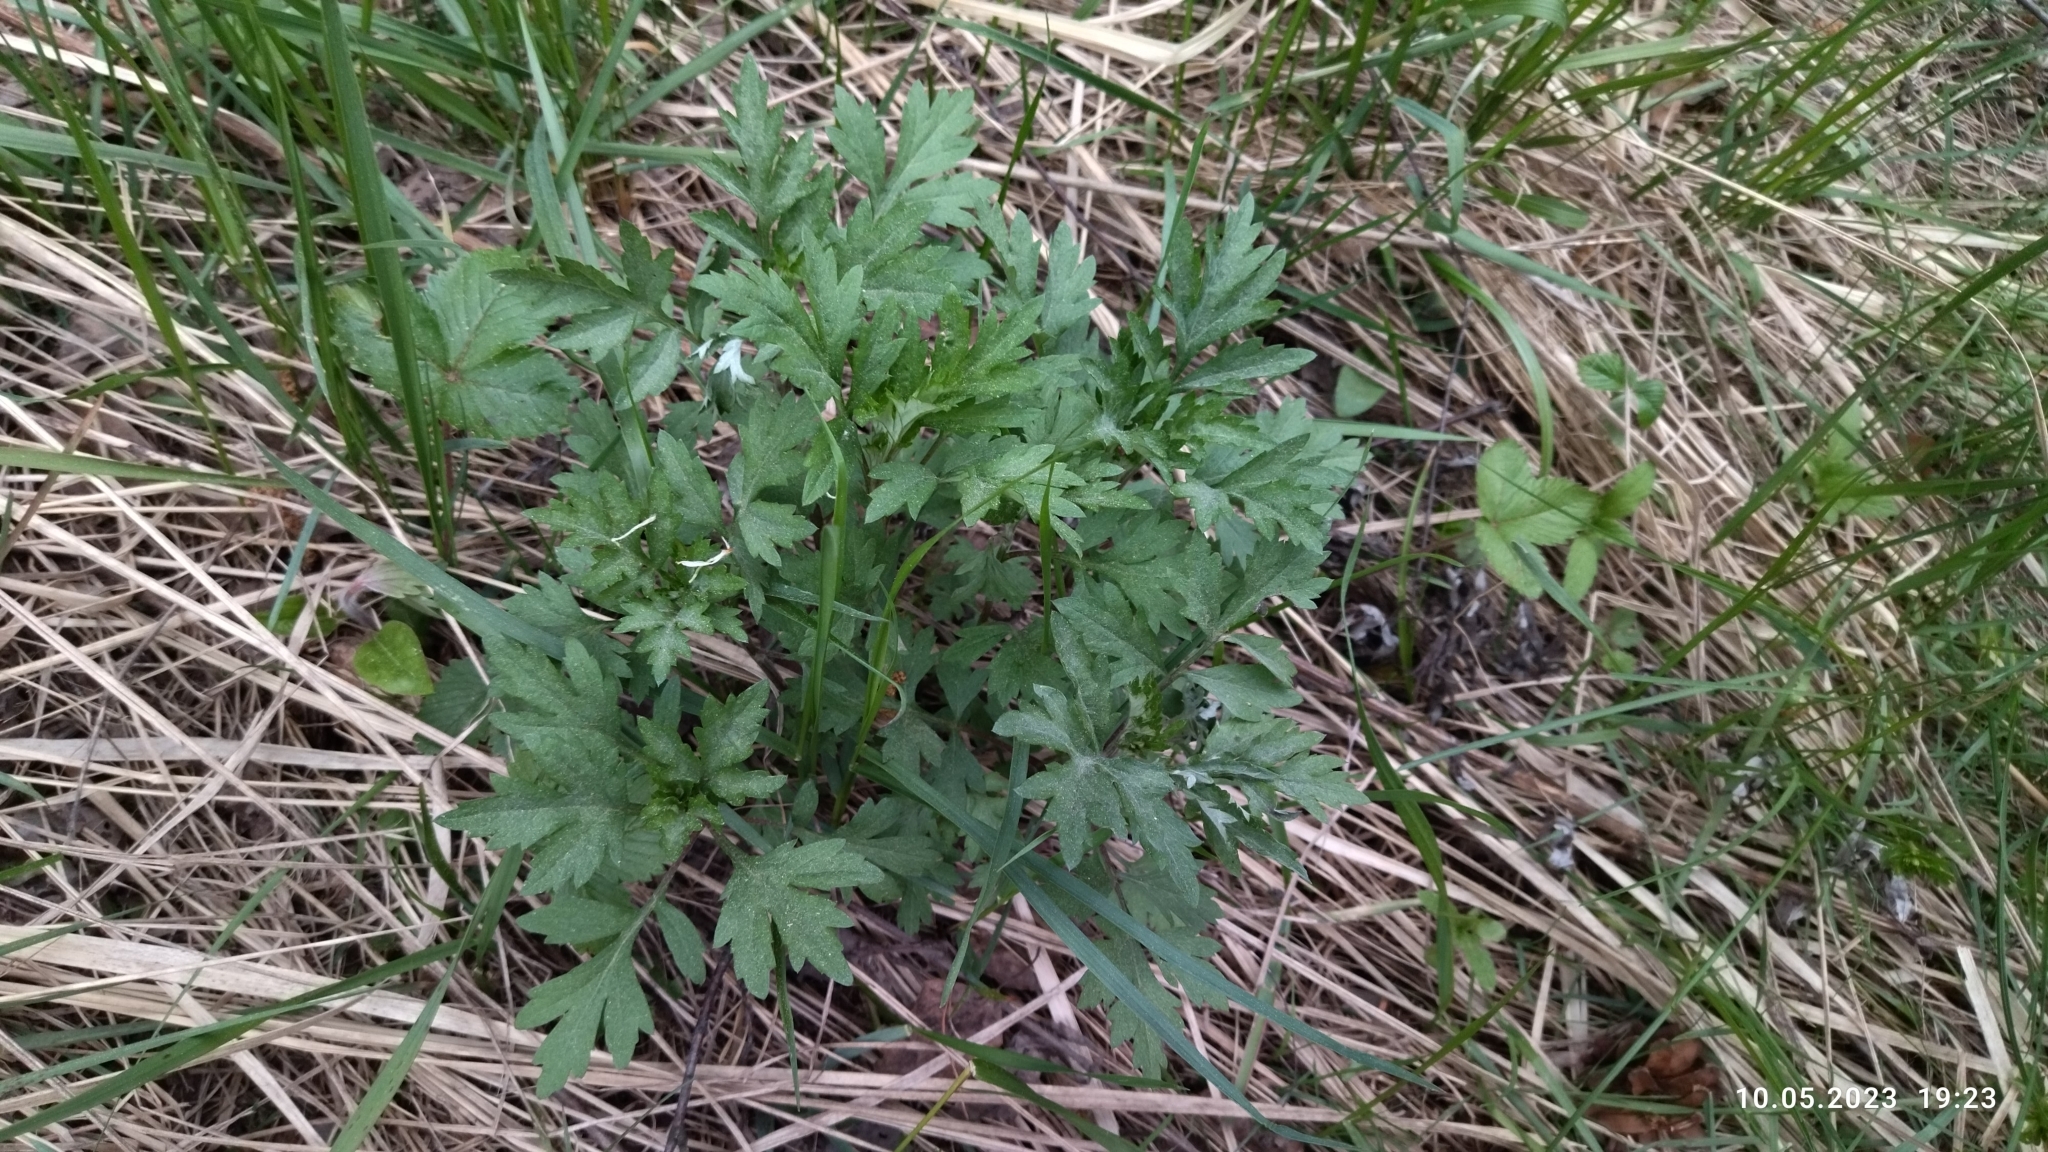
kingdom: Plantae
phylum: Tracheophyta
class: Magnoliopsida
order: Asterales
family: Asteraceae
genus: Artemisia
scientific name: Artemisia vulgaris
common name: Mugwort
